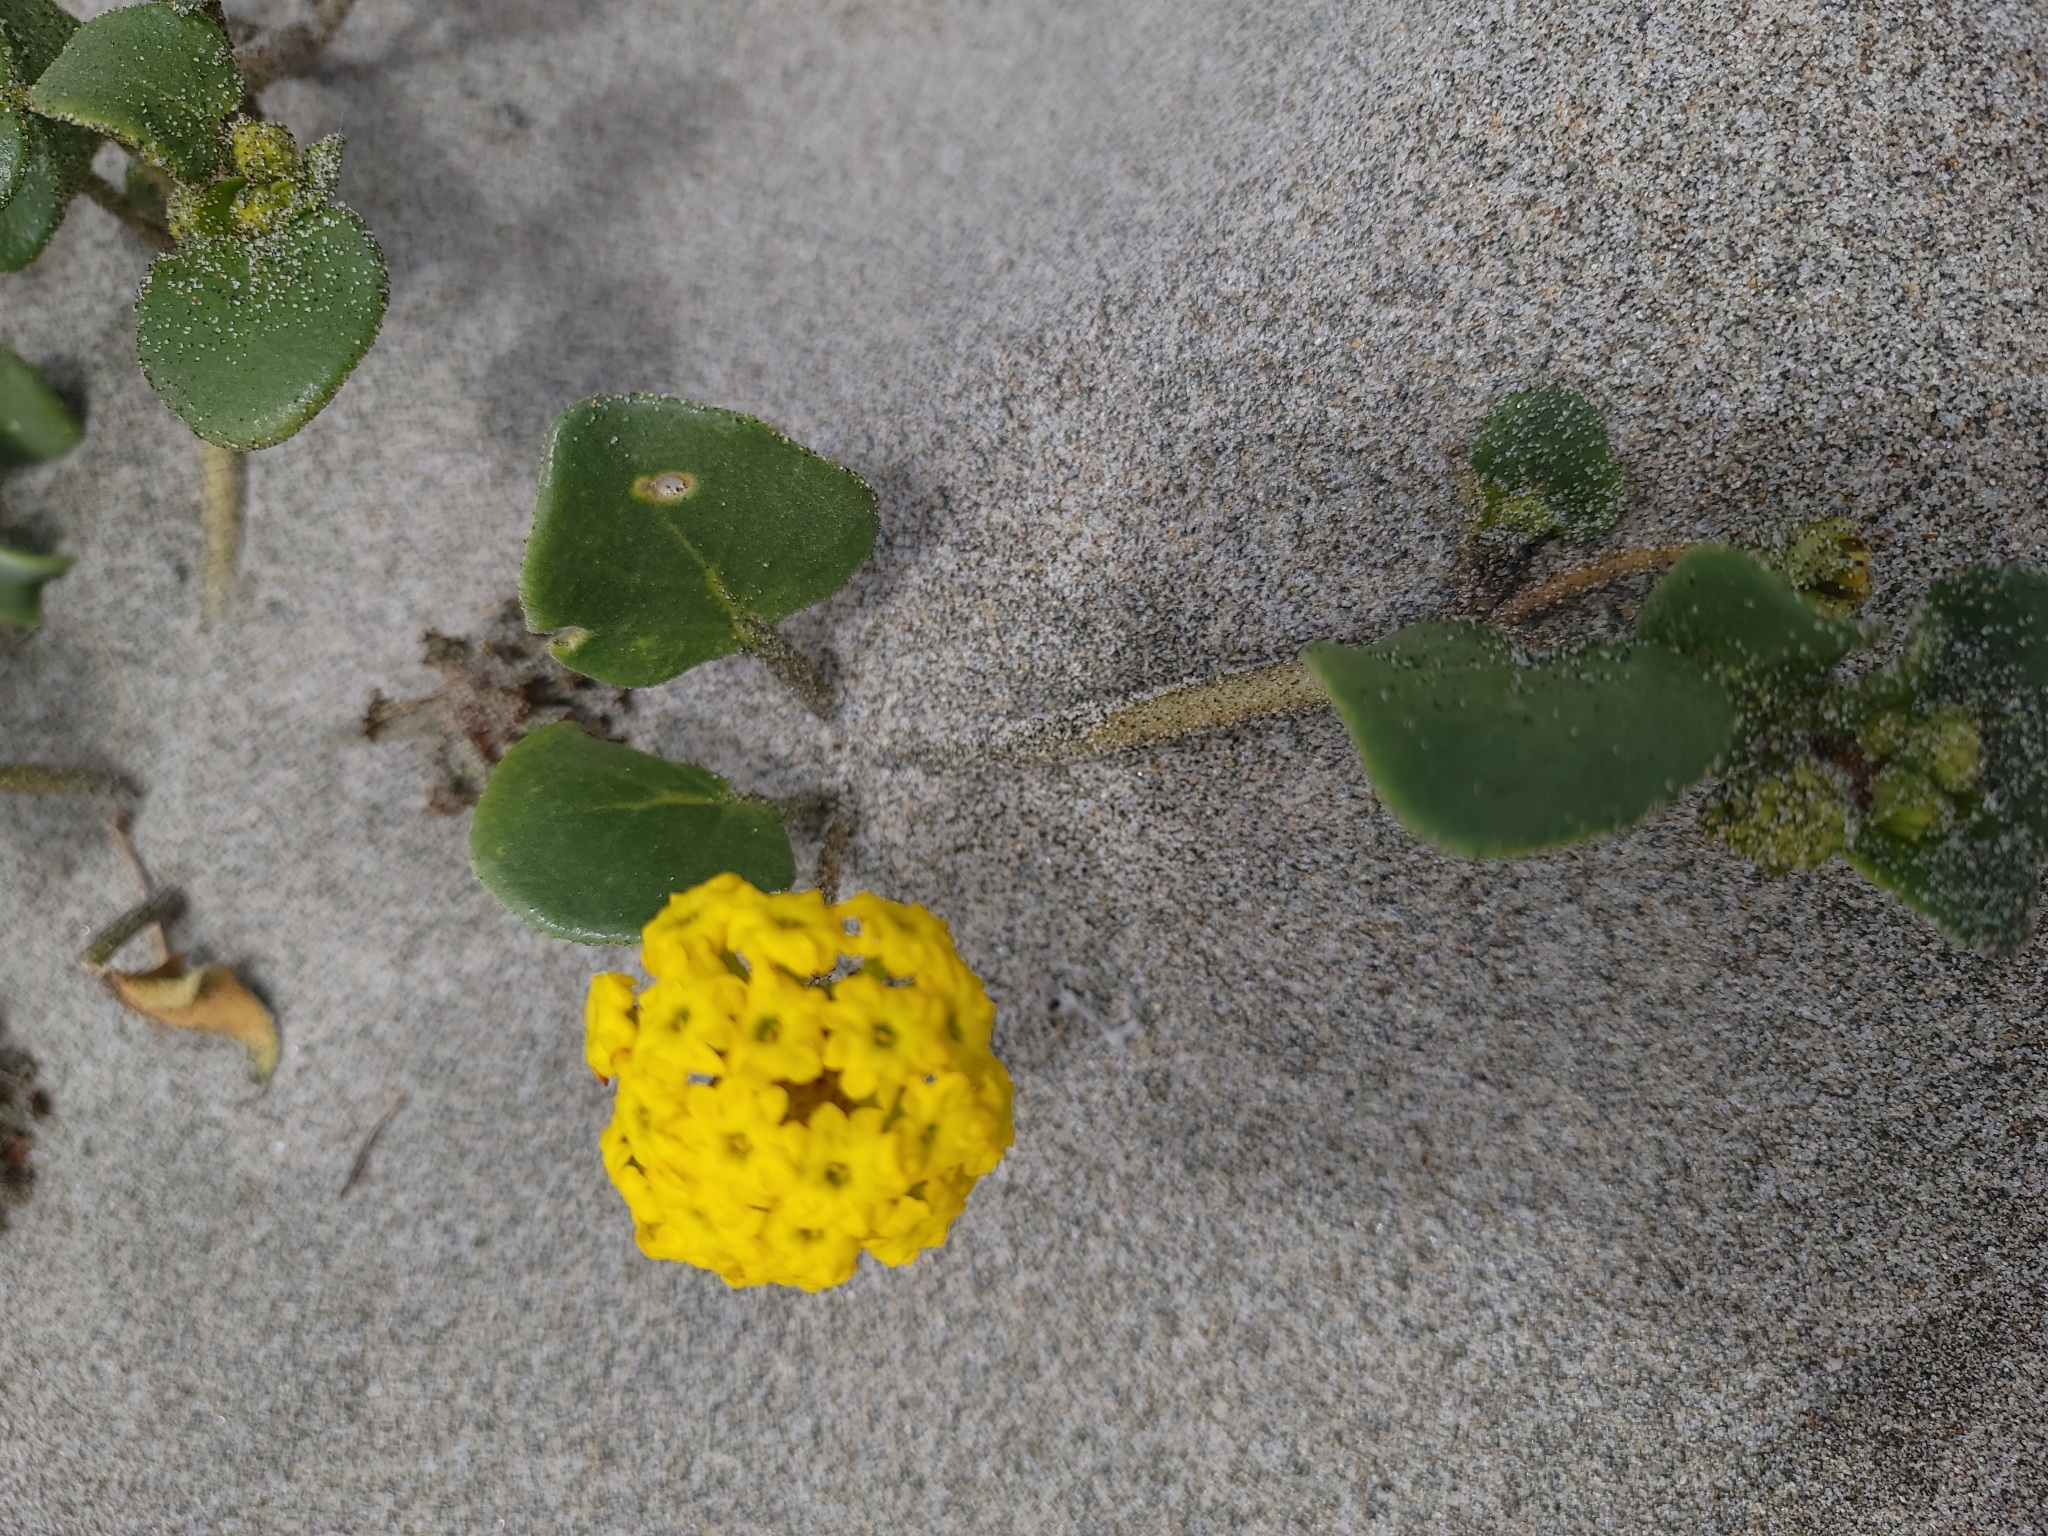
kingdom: Plantae
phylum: Tracheophyta
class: Magnoliopsida
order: Caryophyllales
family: Nyctaginaceae
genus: Abronia
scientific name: Abronia latifolia
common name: Yellow sand-verbena
